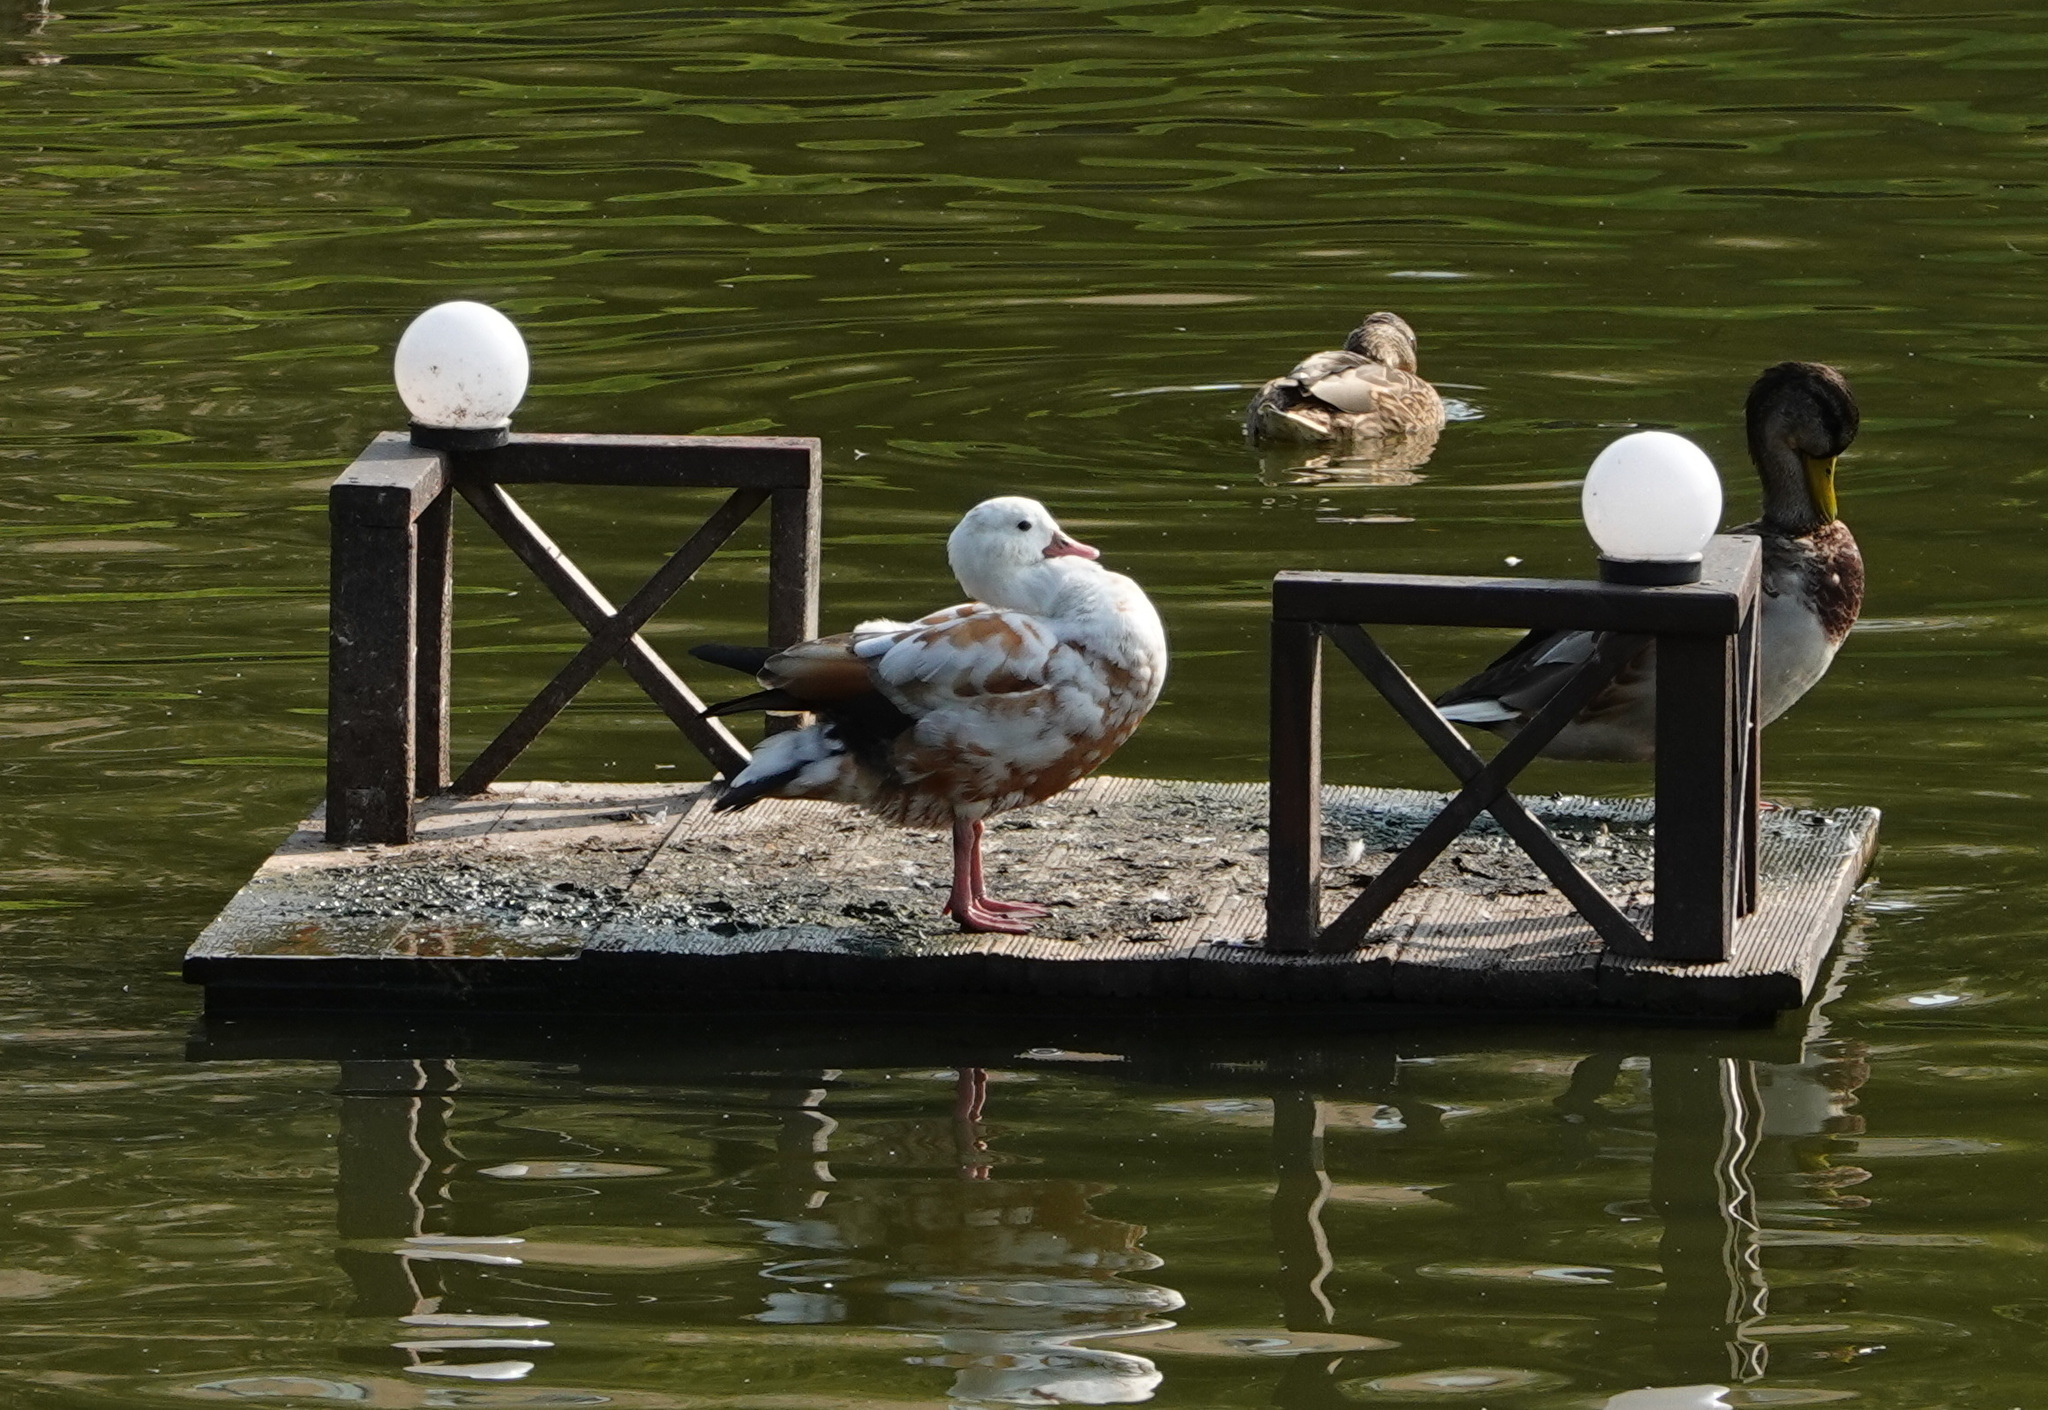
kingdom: Animalia
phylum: Chordata
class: Aves
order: Anseriformes
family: Anatidae
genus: Tadorna
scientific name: Tadorna ferruginea
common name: Ruddy shelduck
